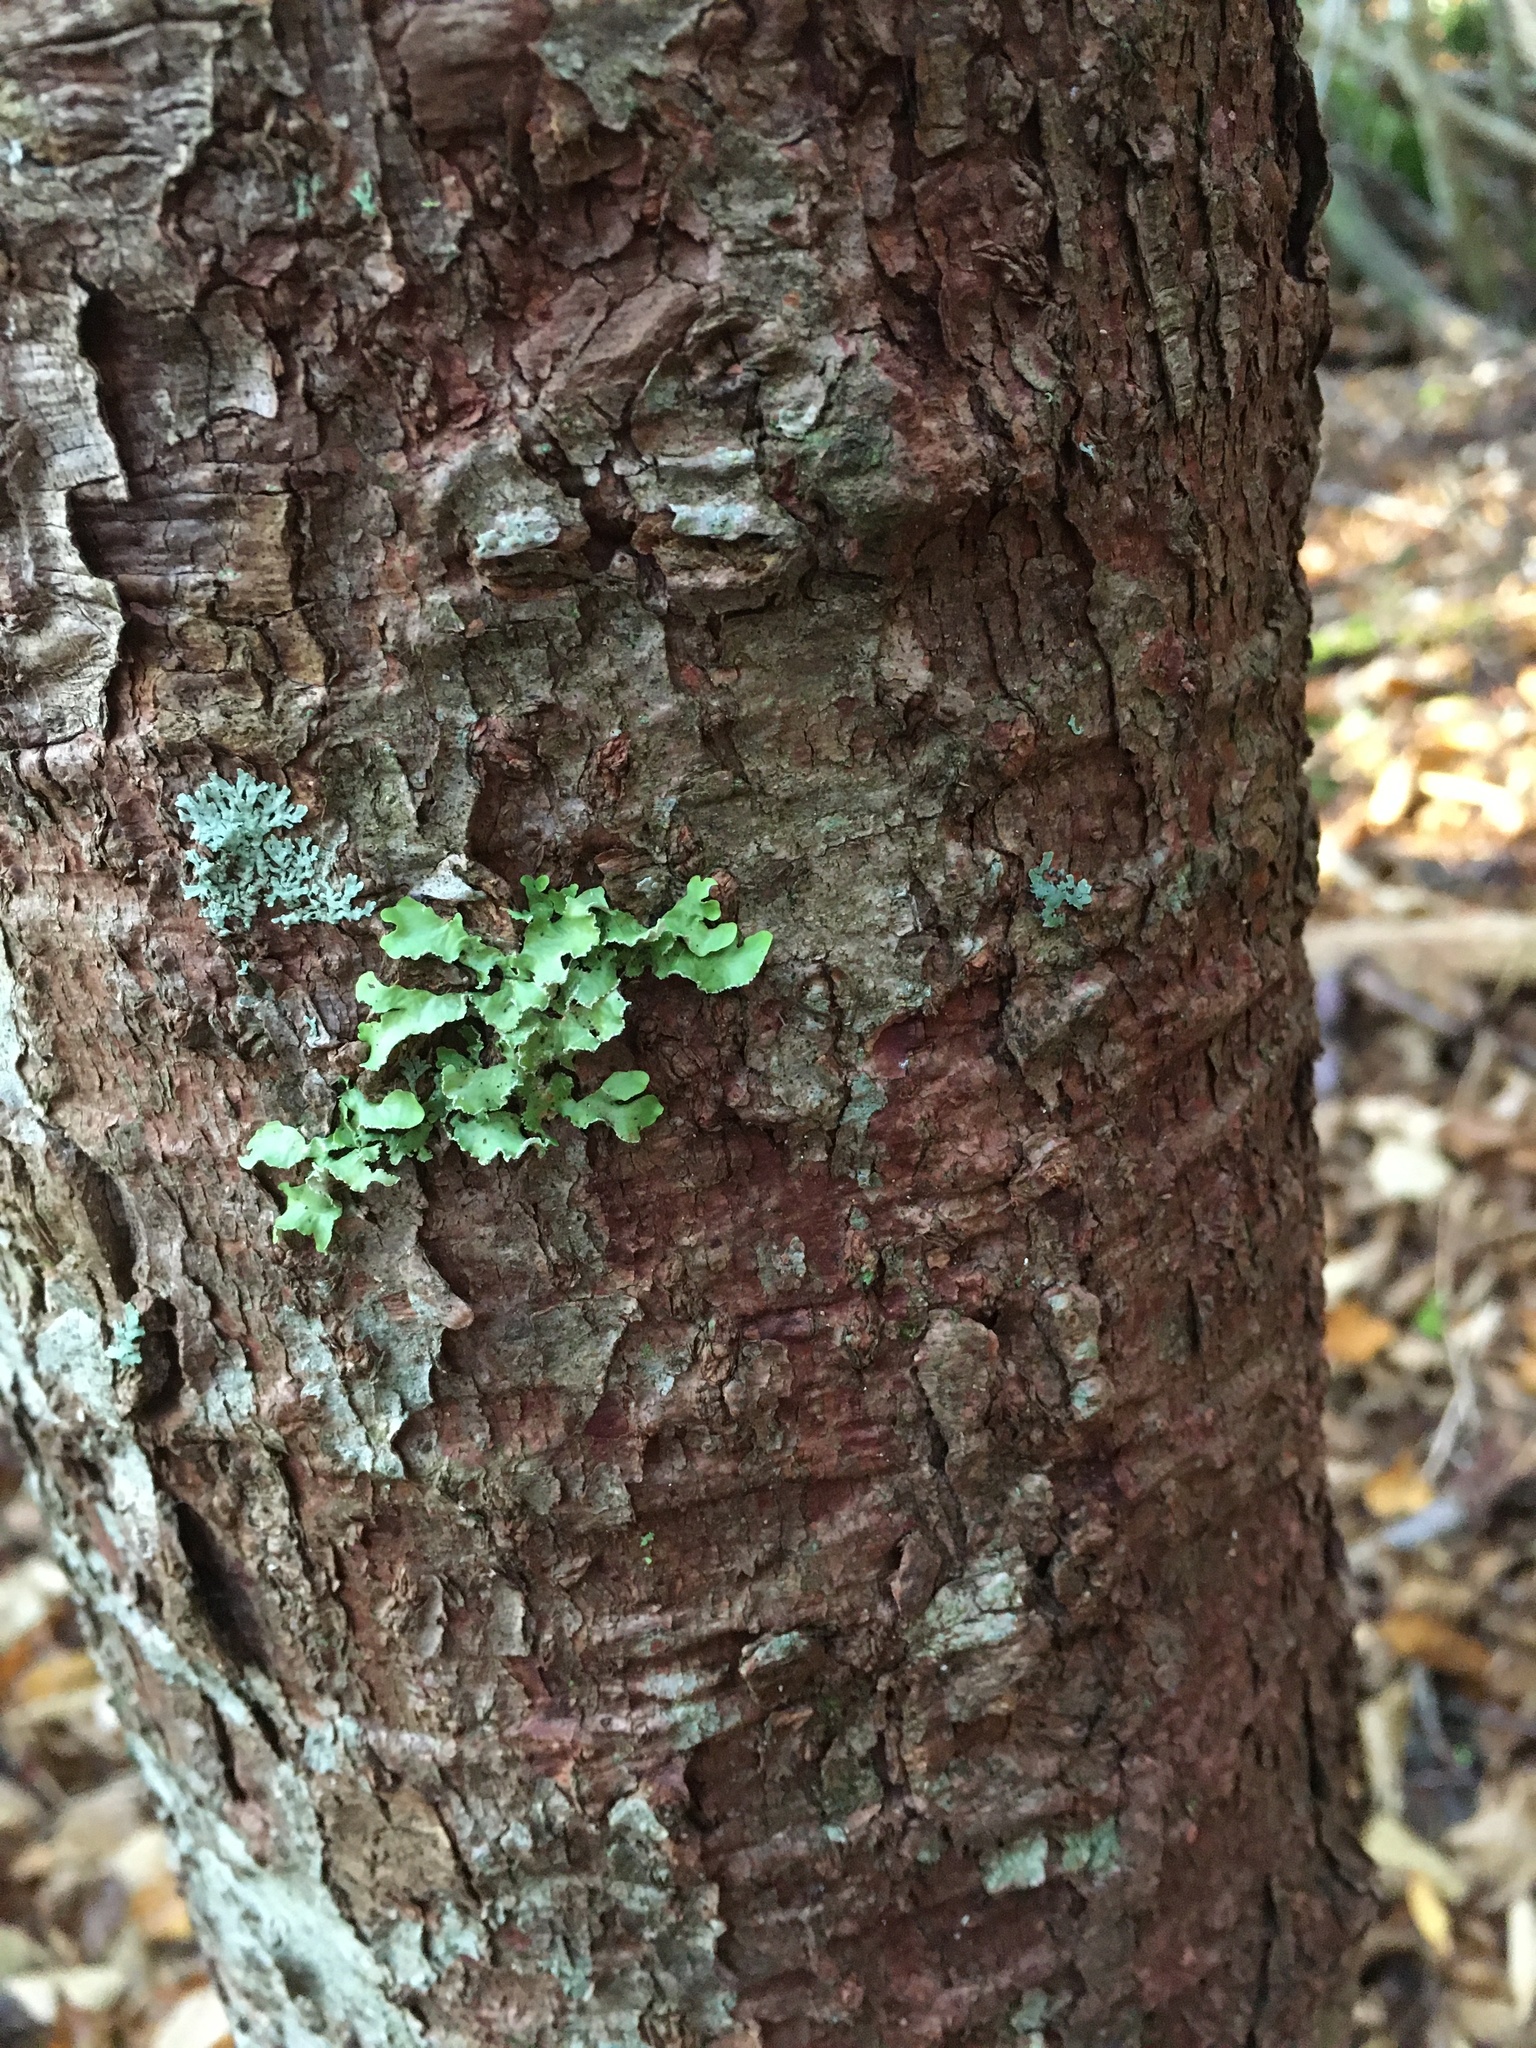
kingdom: Fungi
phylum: Ascomycota
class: Lecanoromycetes
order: Lecanorales
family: Parmeliaceae
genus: Usnocetraria
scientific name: Usnocetraria oakesiana
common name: Yellow ribbon lichen
